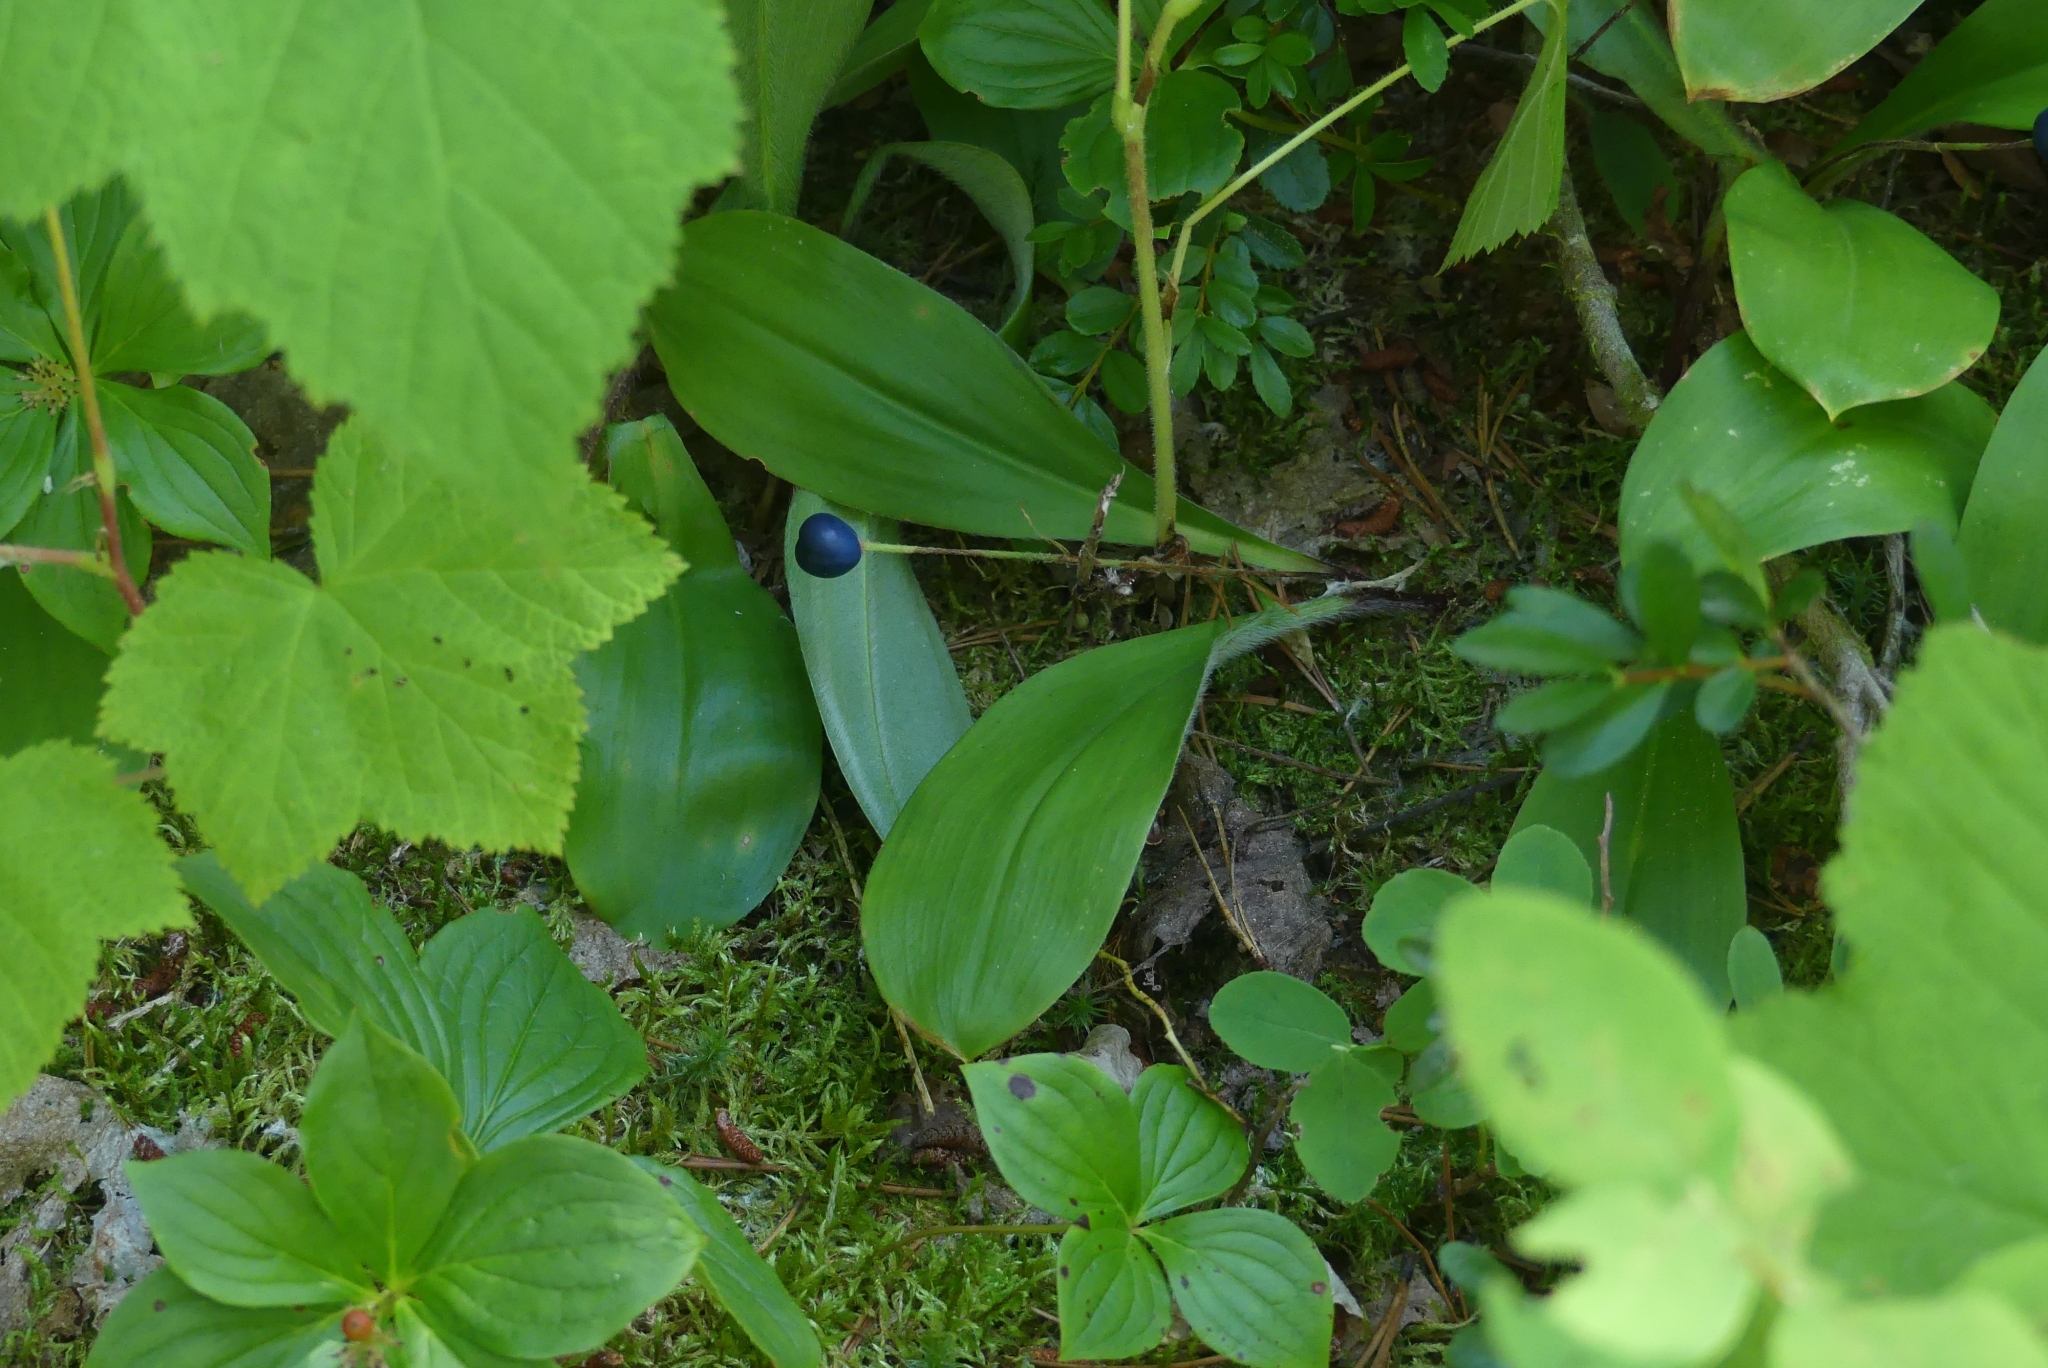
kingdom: Plantae
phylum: Tracheophyta
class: Liliopsida
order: Liliales
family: Liliaceae
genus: Clintonia
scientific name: Clintonia uniflora
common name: Queen's cup
